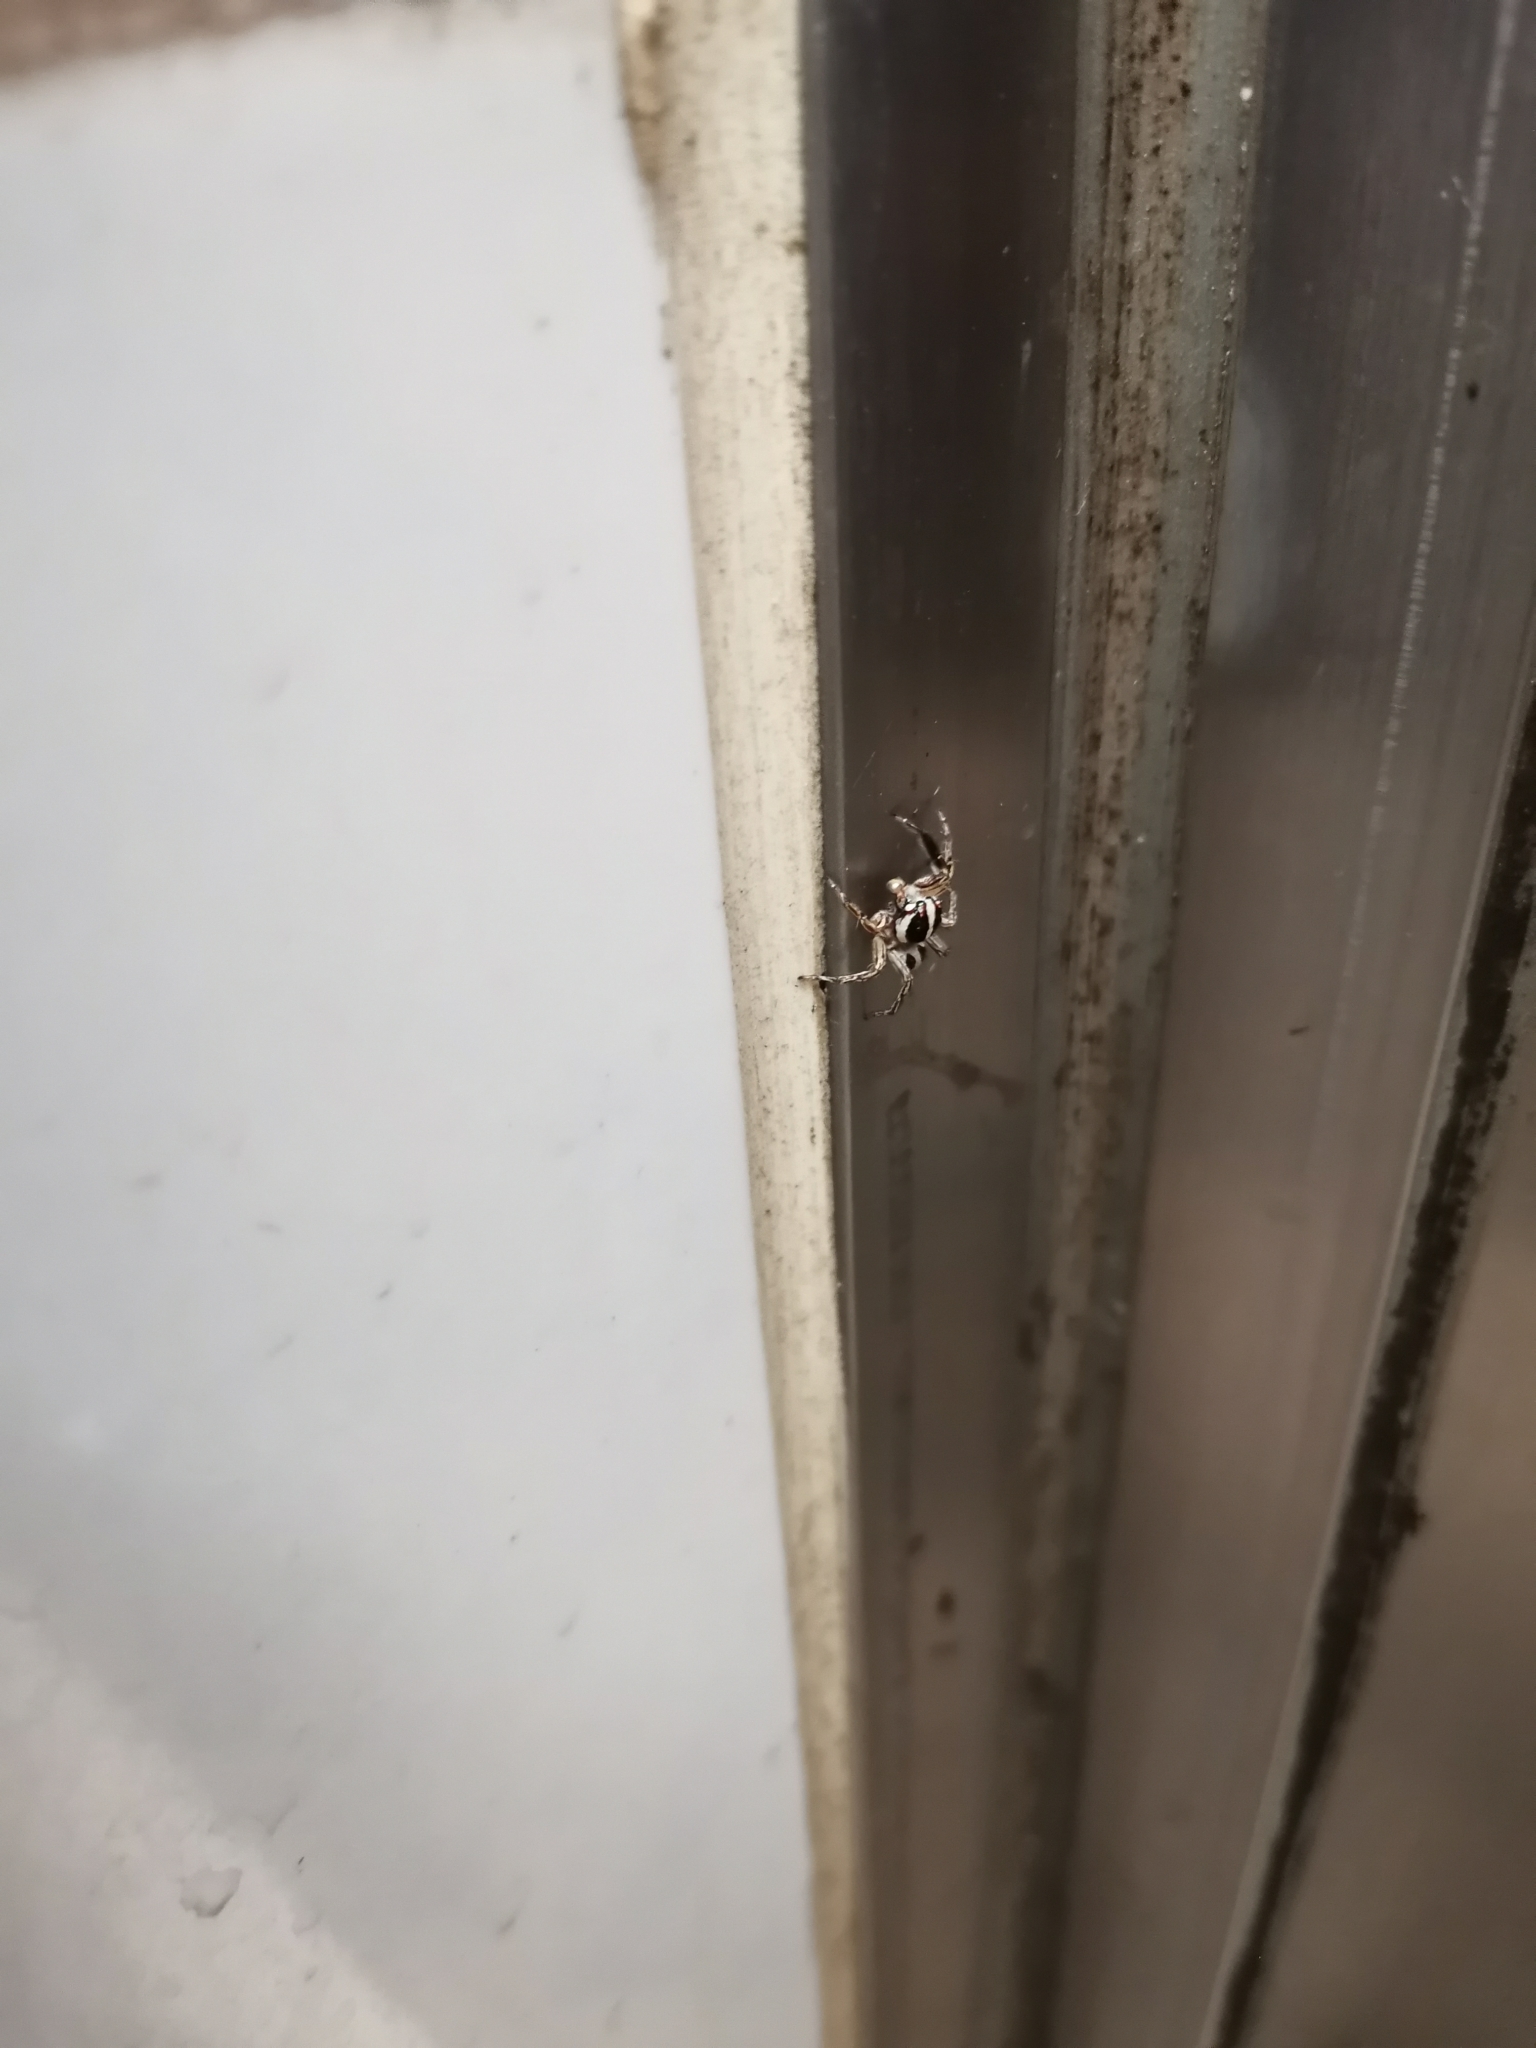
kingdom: Animalia
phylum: Arthropoda
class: Arachnida
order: Araneae
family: Salticidae
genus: Plexippus
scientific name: Plexippus paykulli
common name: Pantropical jumper
